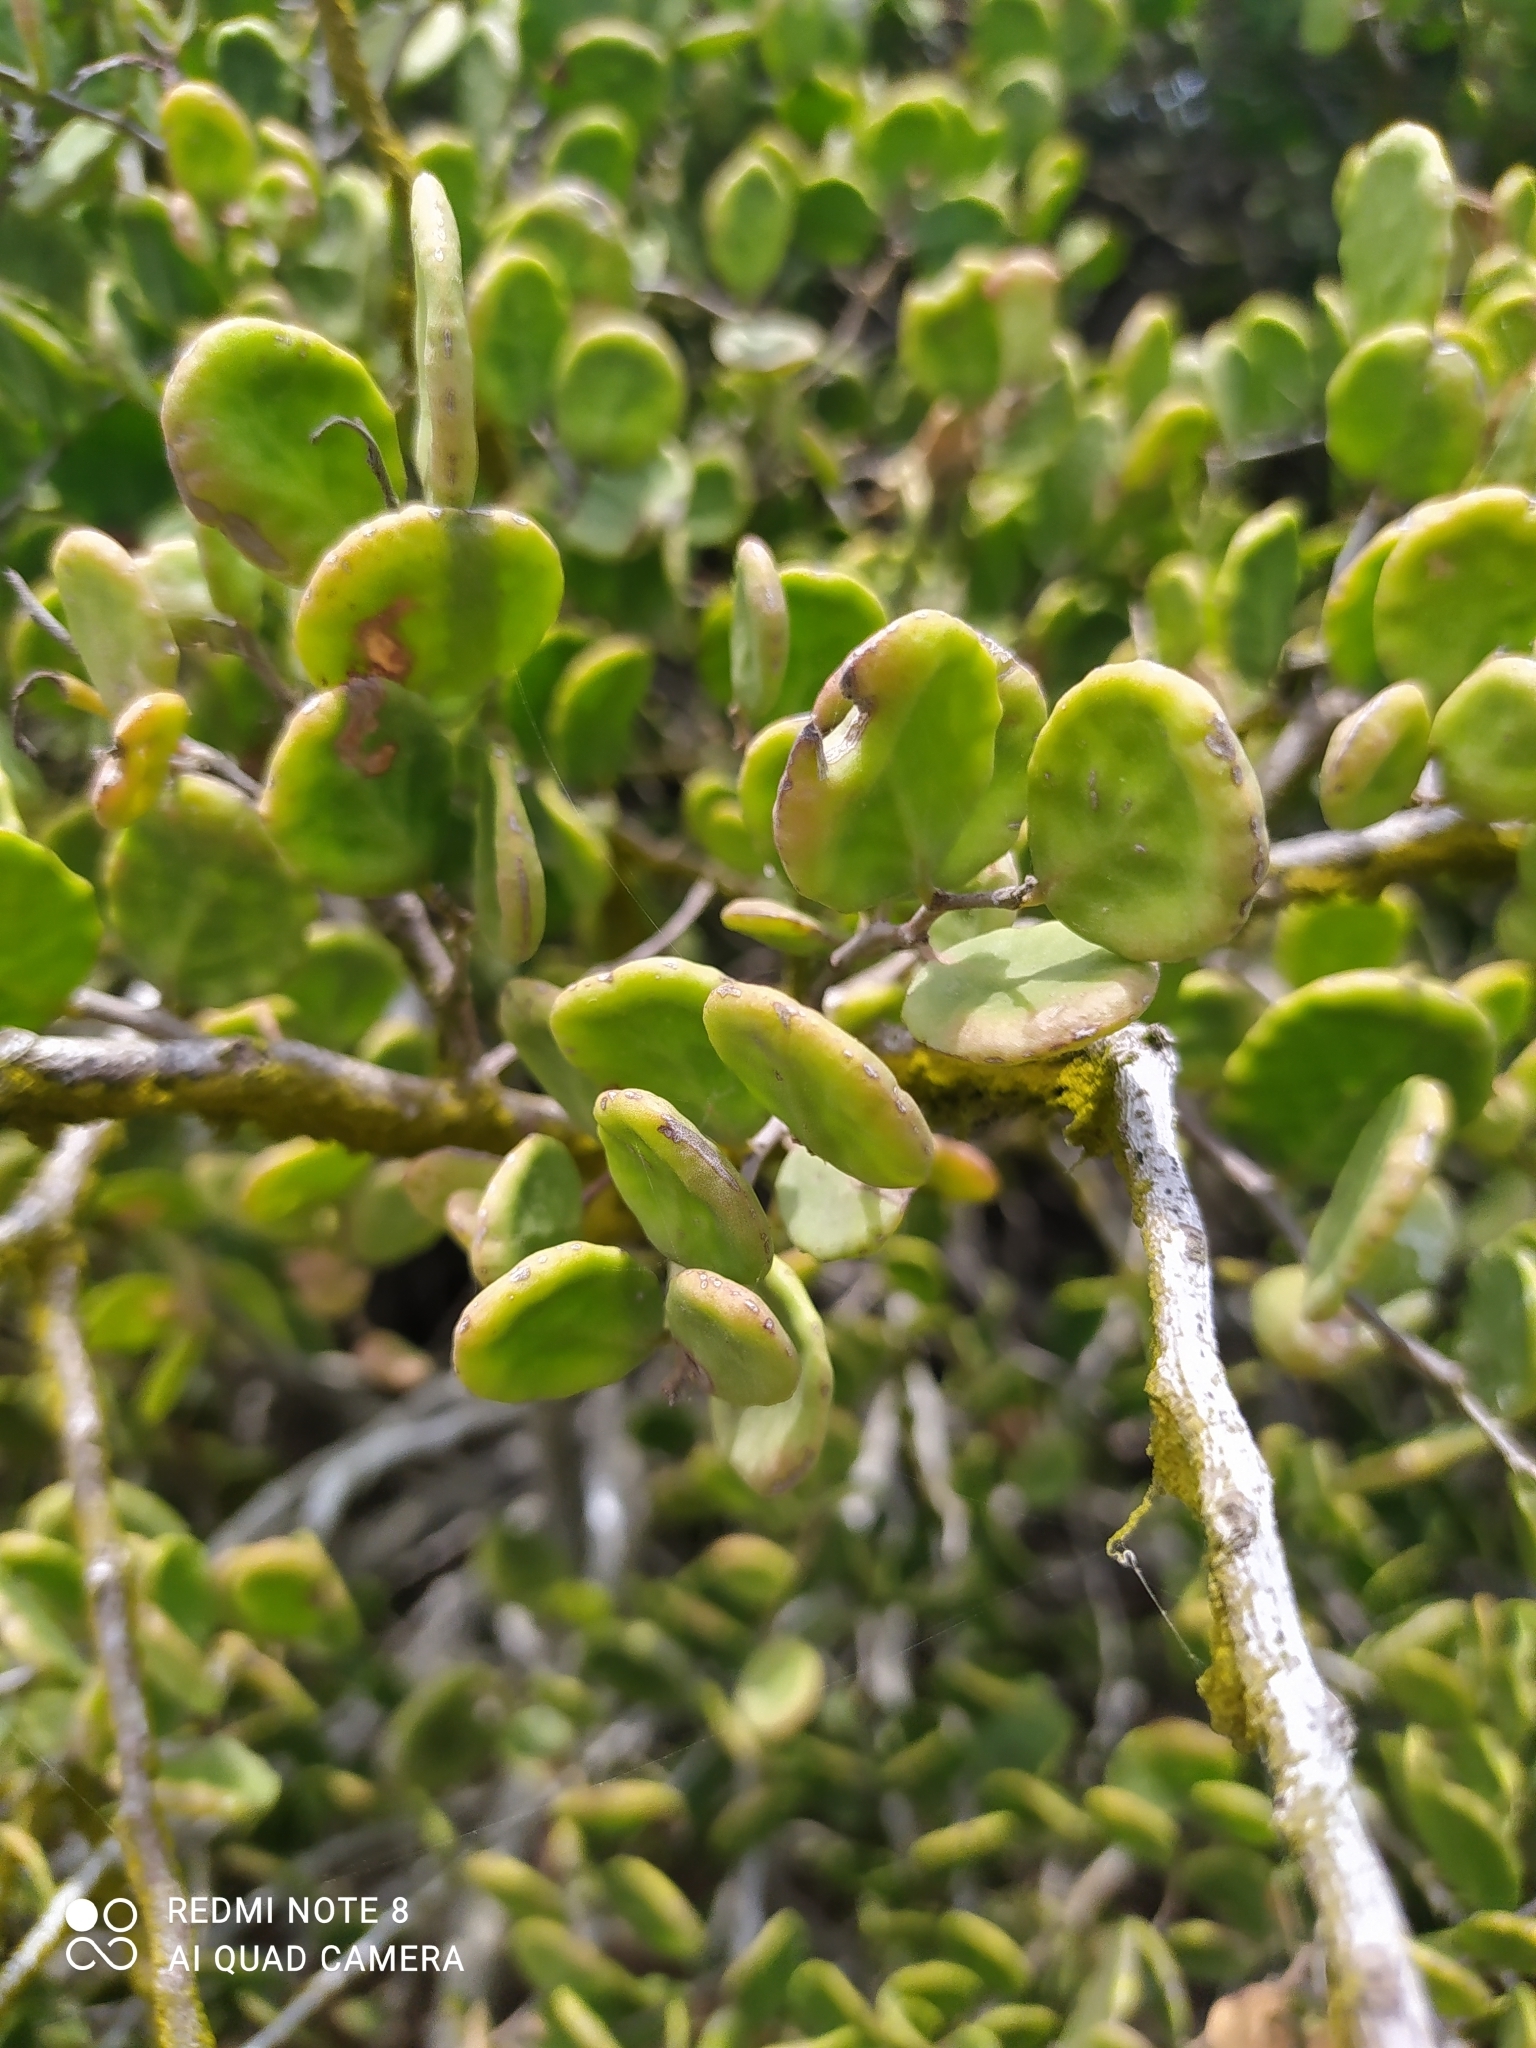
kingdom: Plantae
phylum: Tracheophyta
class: Magnoliopsida
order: Celastrales
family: Celastraceae
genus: Tricerma
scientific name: Tricerma octogonum
